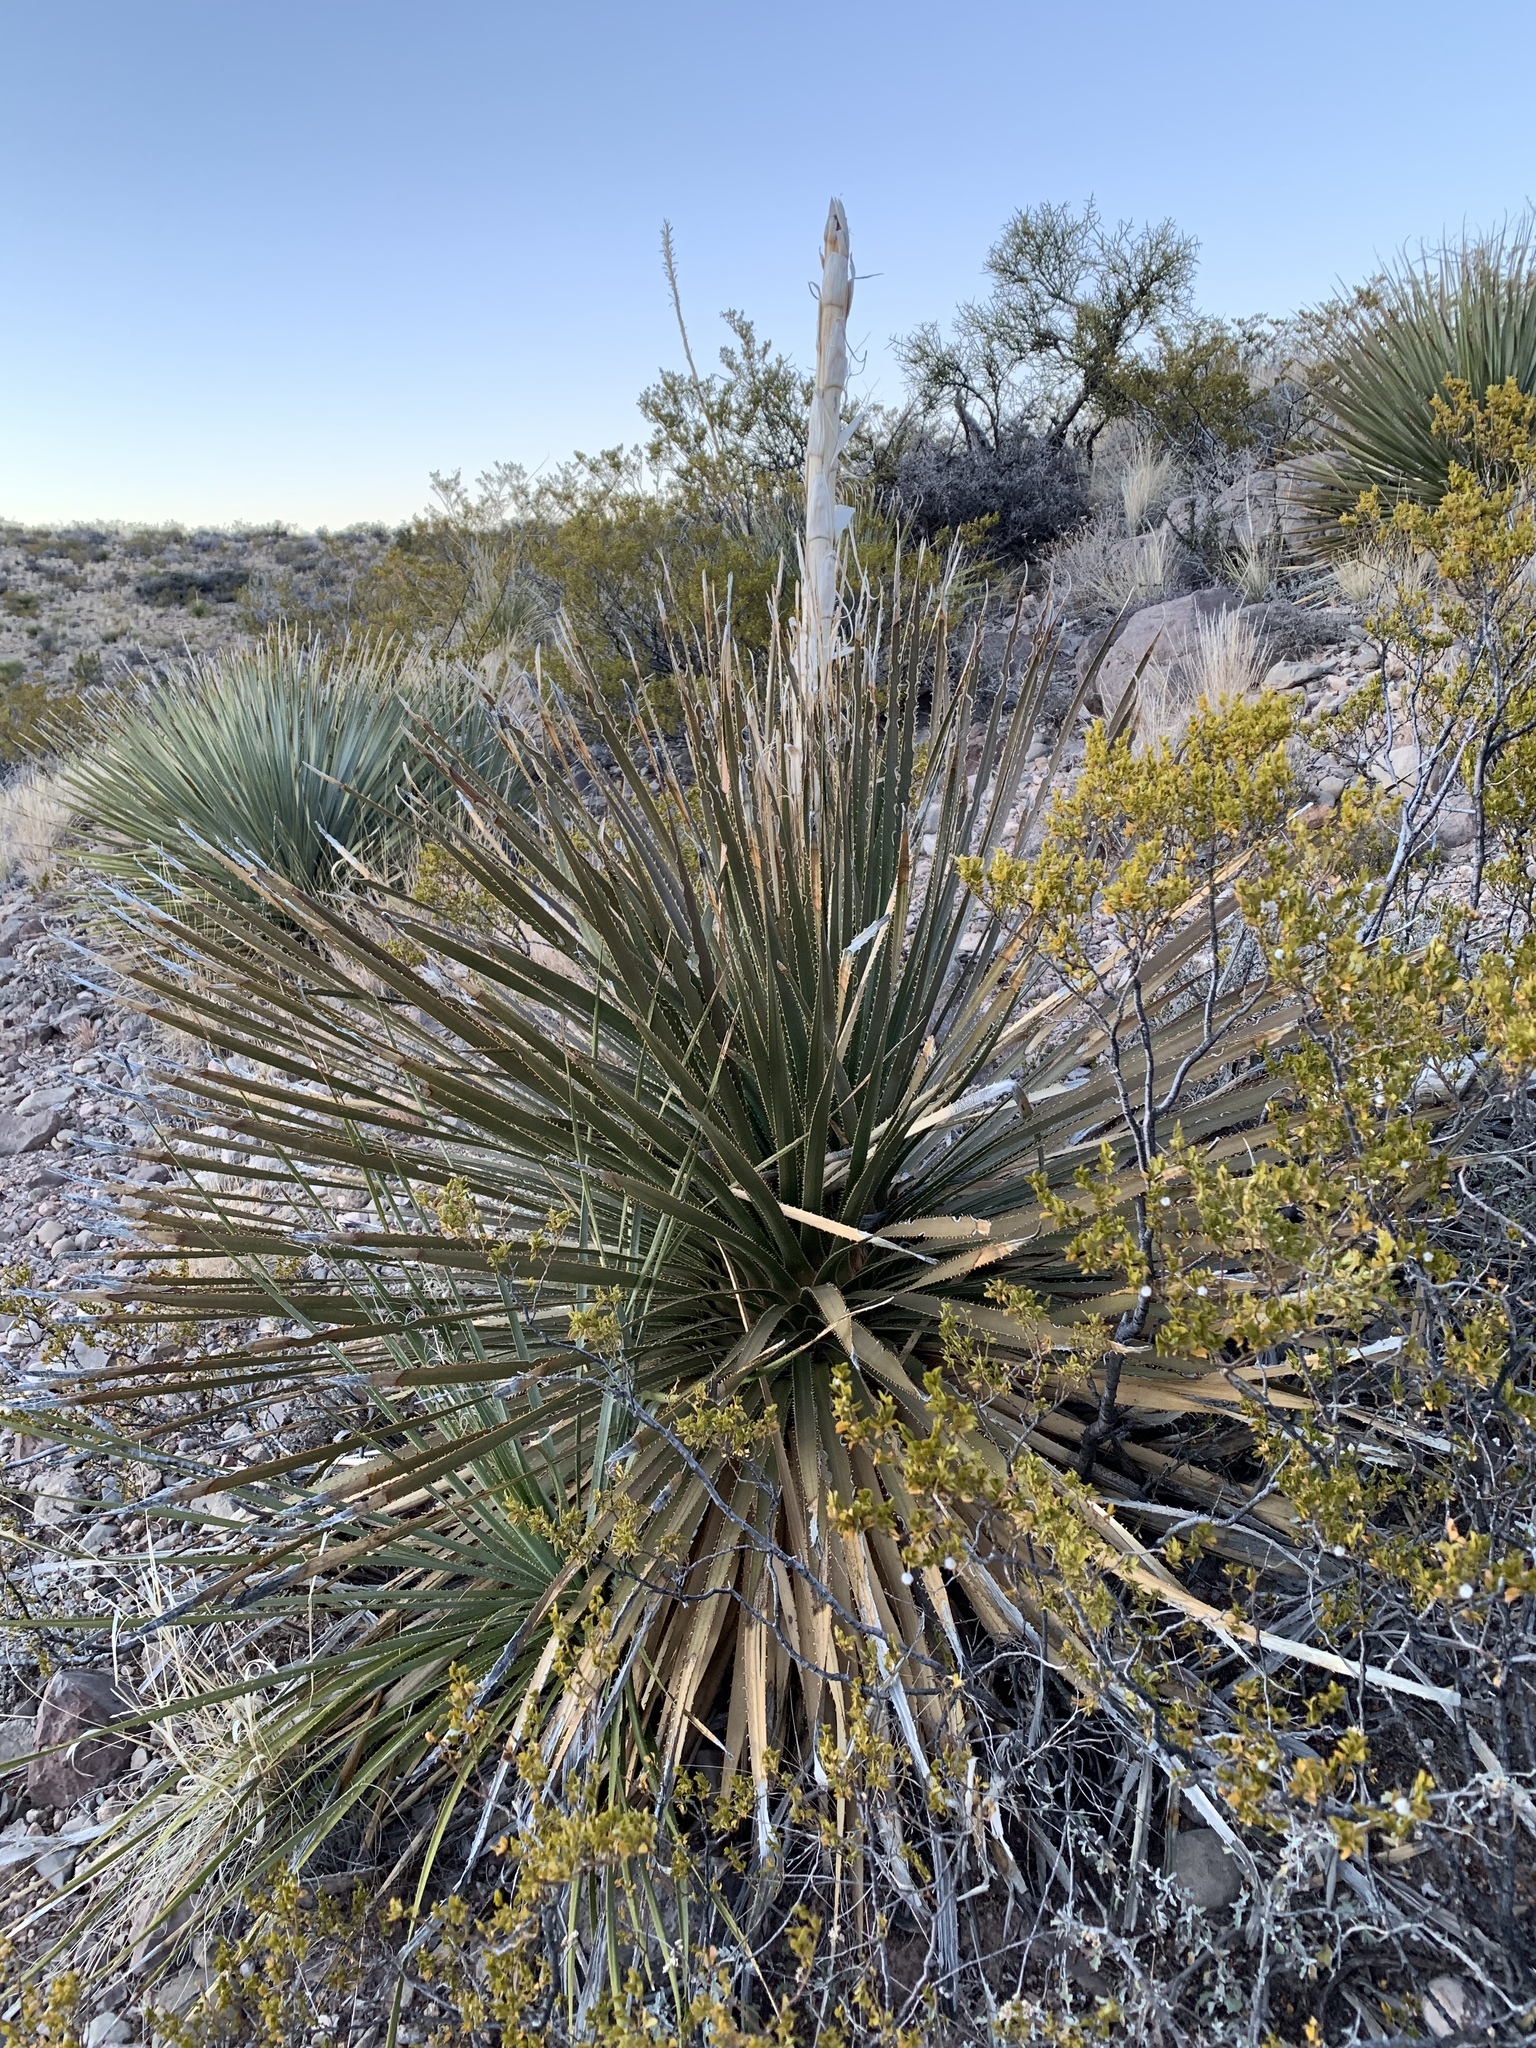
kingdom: Plantae
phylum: Tracheophyta
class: Liliopsida
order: Asparagales
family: Asparagaceae
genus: Dasylirion
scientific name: Dasylirion wheeleri
